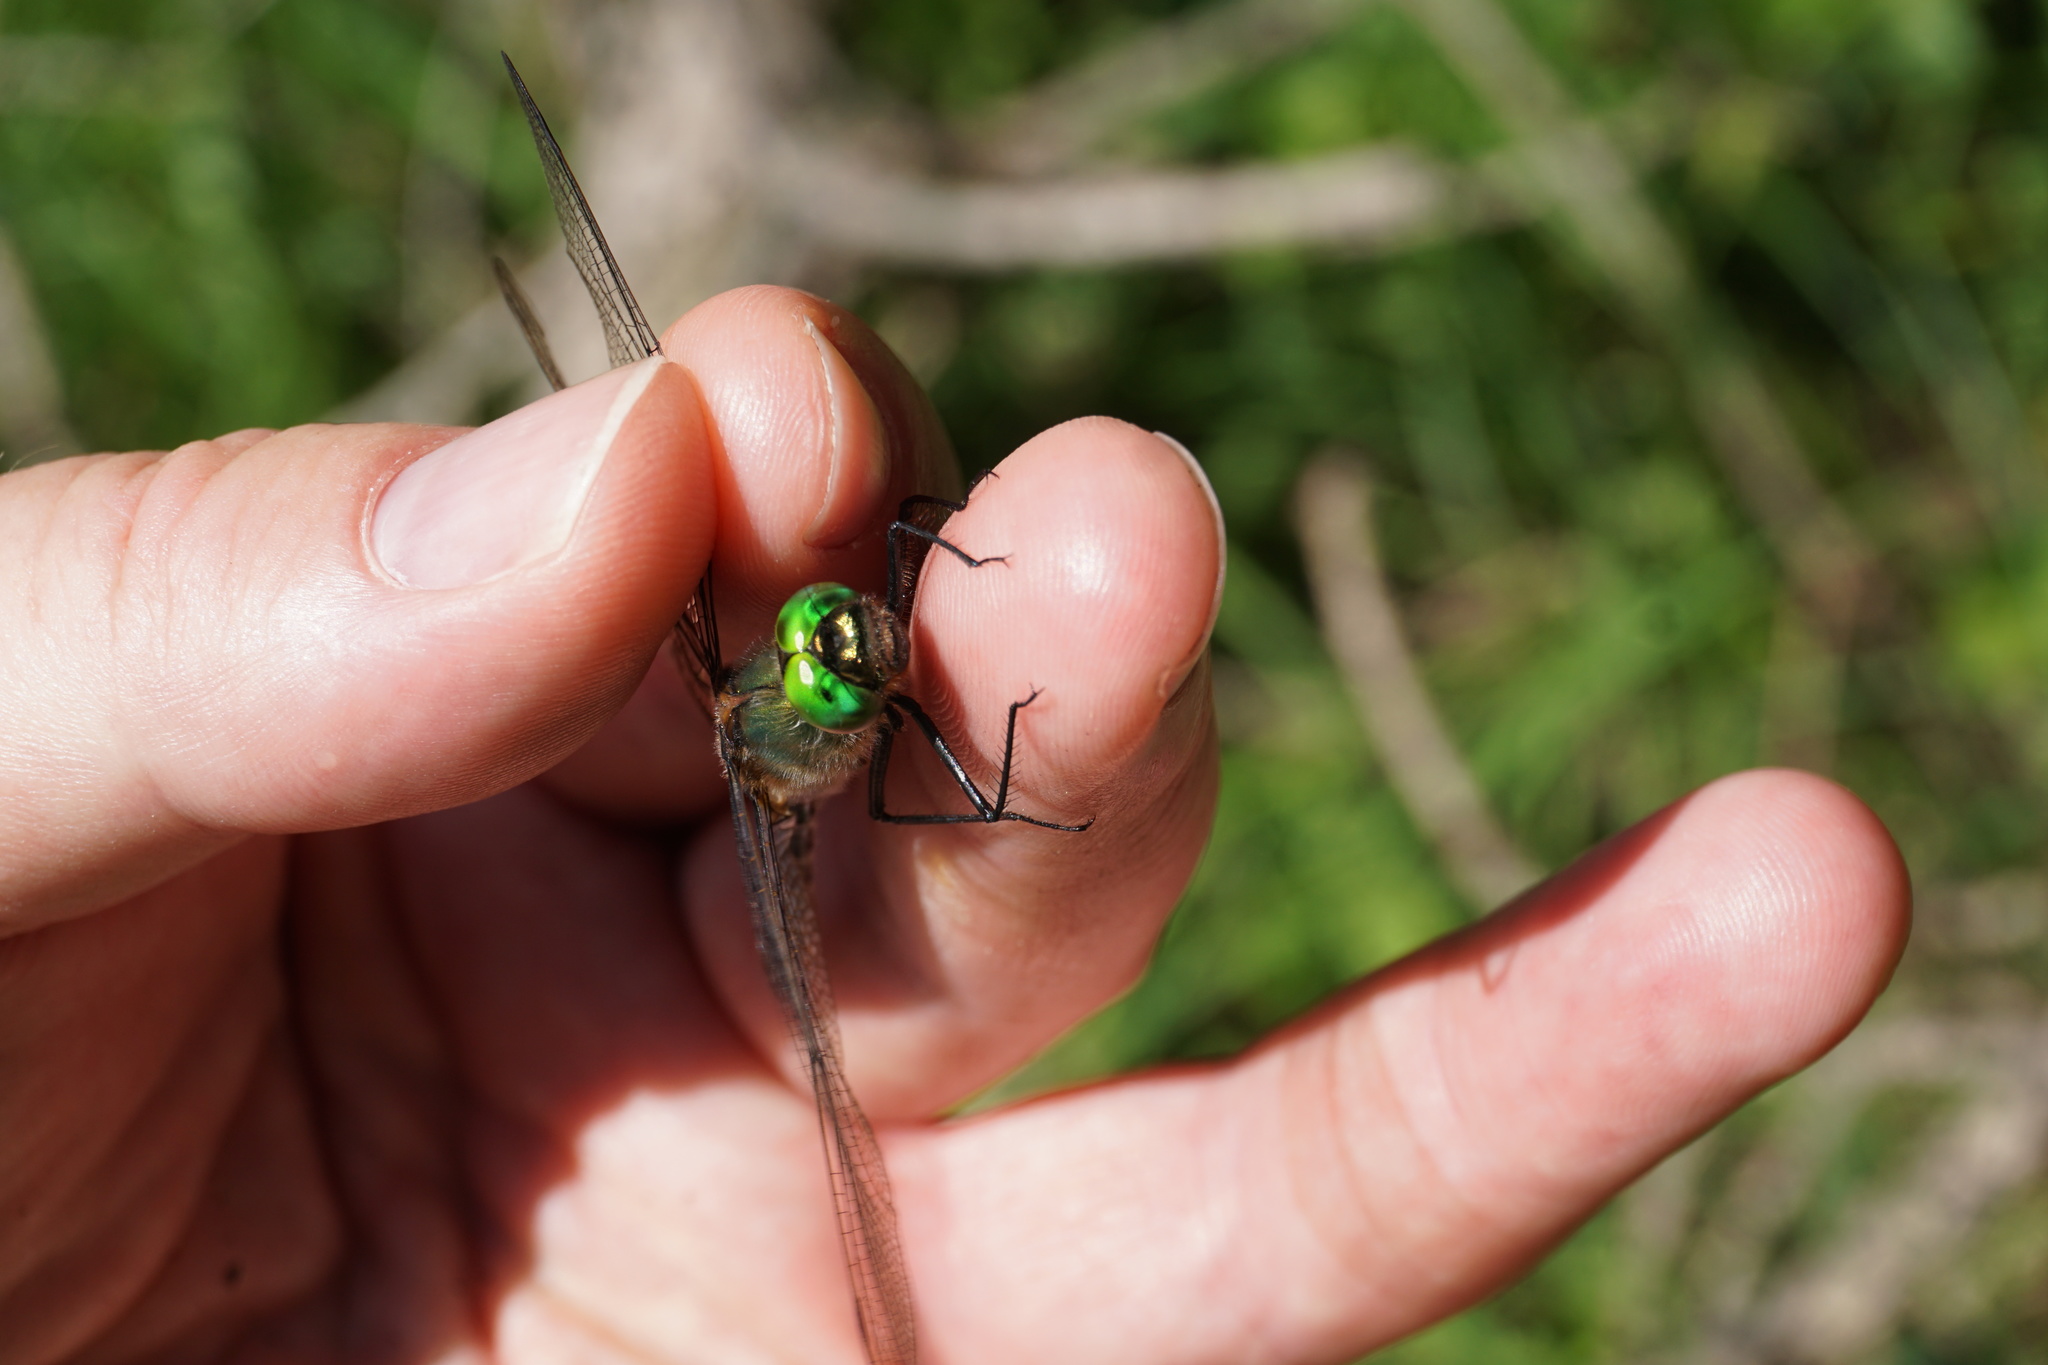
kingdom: Animalia
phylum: Arthropoda
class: Insecta
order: Odonata
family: Corduliidae
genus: Cordulia
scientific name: Cordulia aenea
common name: Downy emerald
